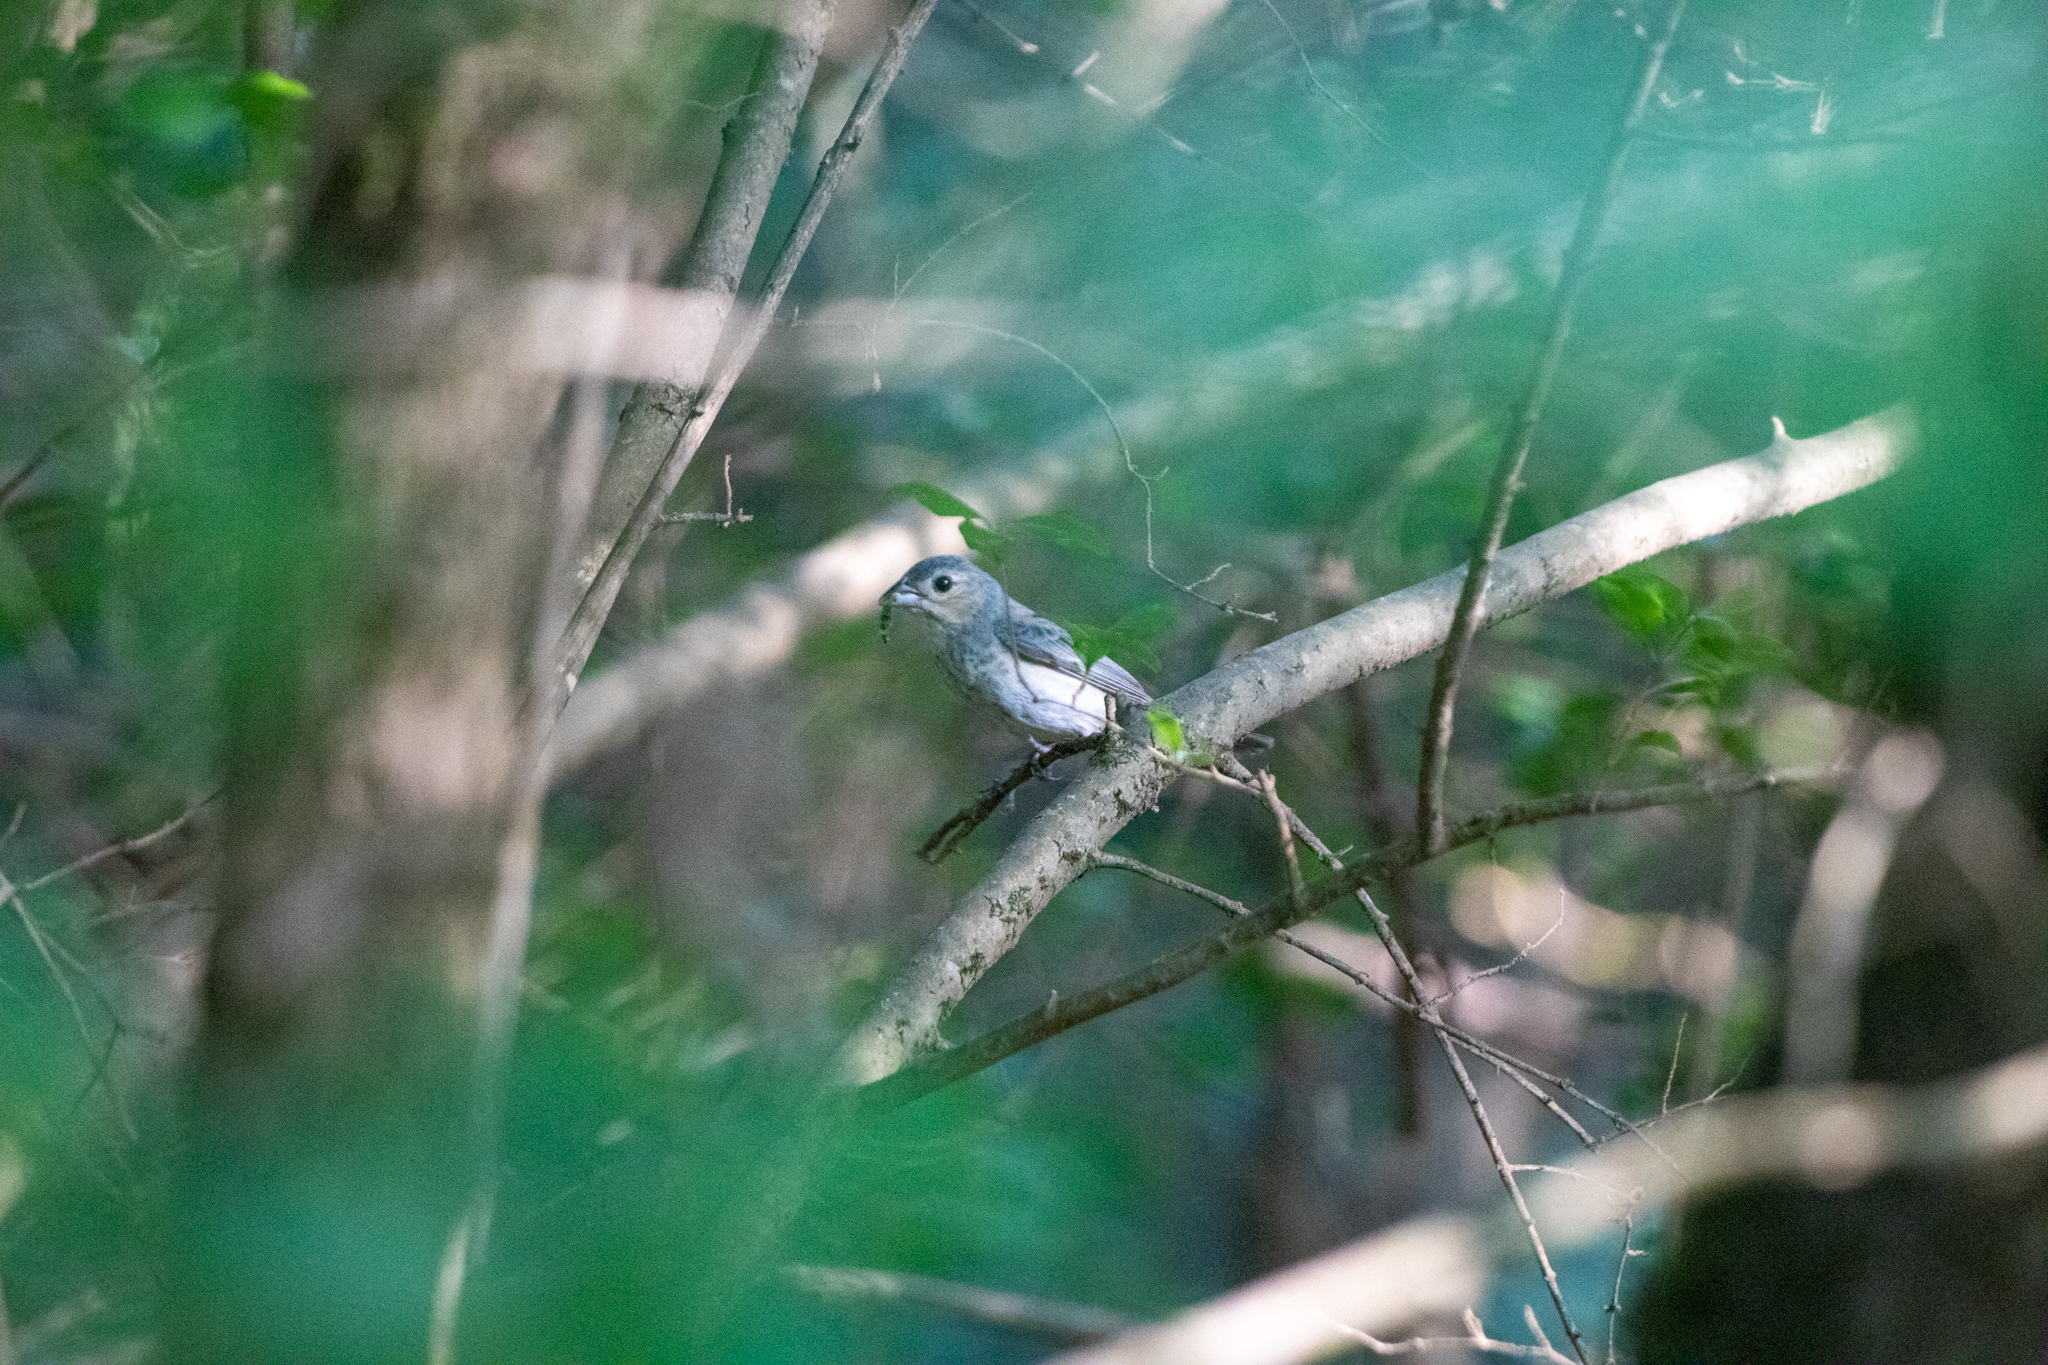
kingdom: Animalia
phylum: Chordata
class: Aves
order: Passeriformes
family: Cardinalidae
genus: Passerina
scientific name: Passerina cyanea
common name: Indigo bunting
